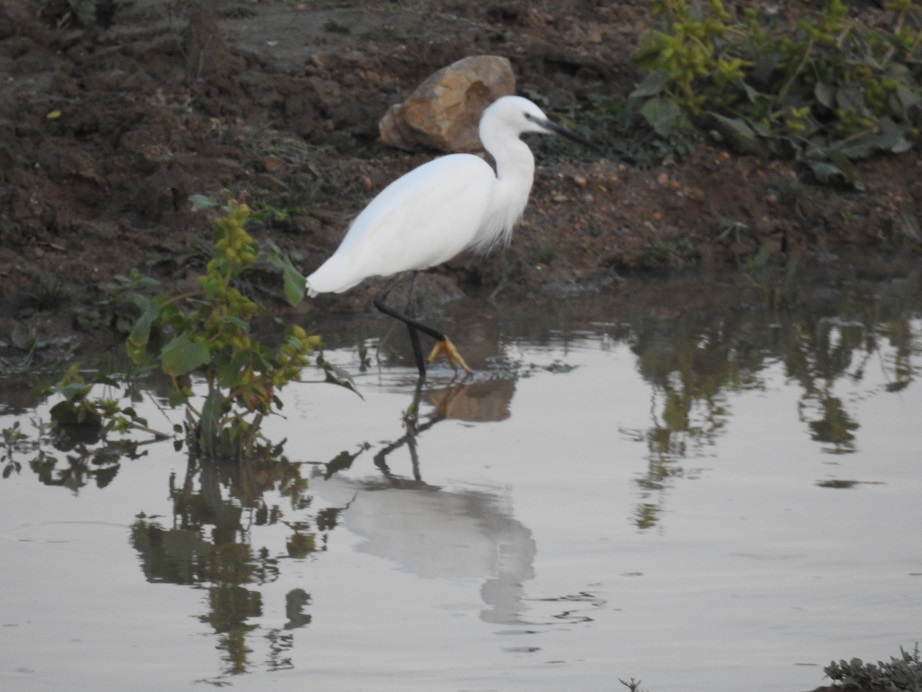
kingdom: Animalia
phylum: Chordata
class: Aves
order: Pelecaniformes
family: Ardeidae
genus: Egretta
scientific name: Egretta garzetta
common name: Little egret
